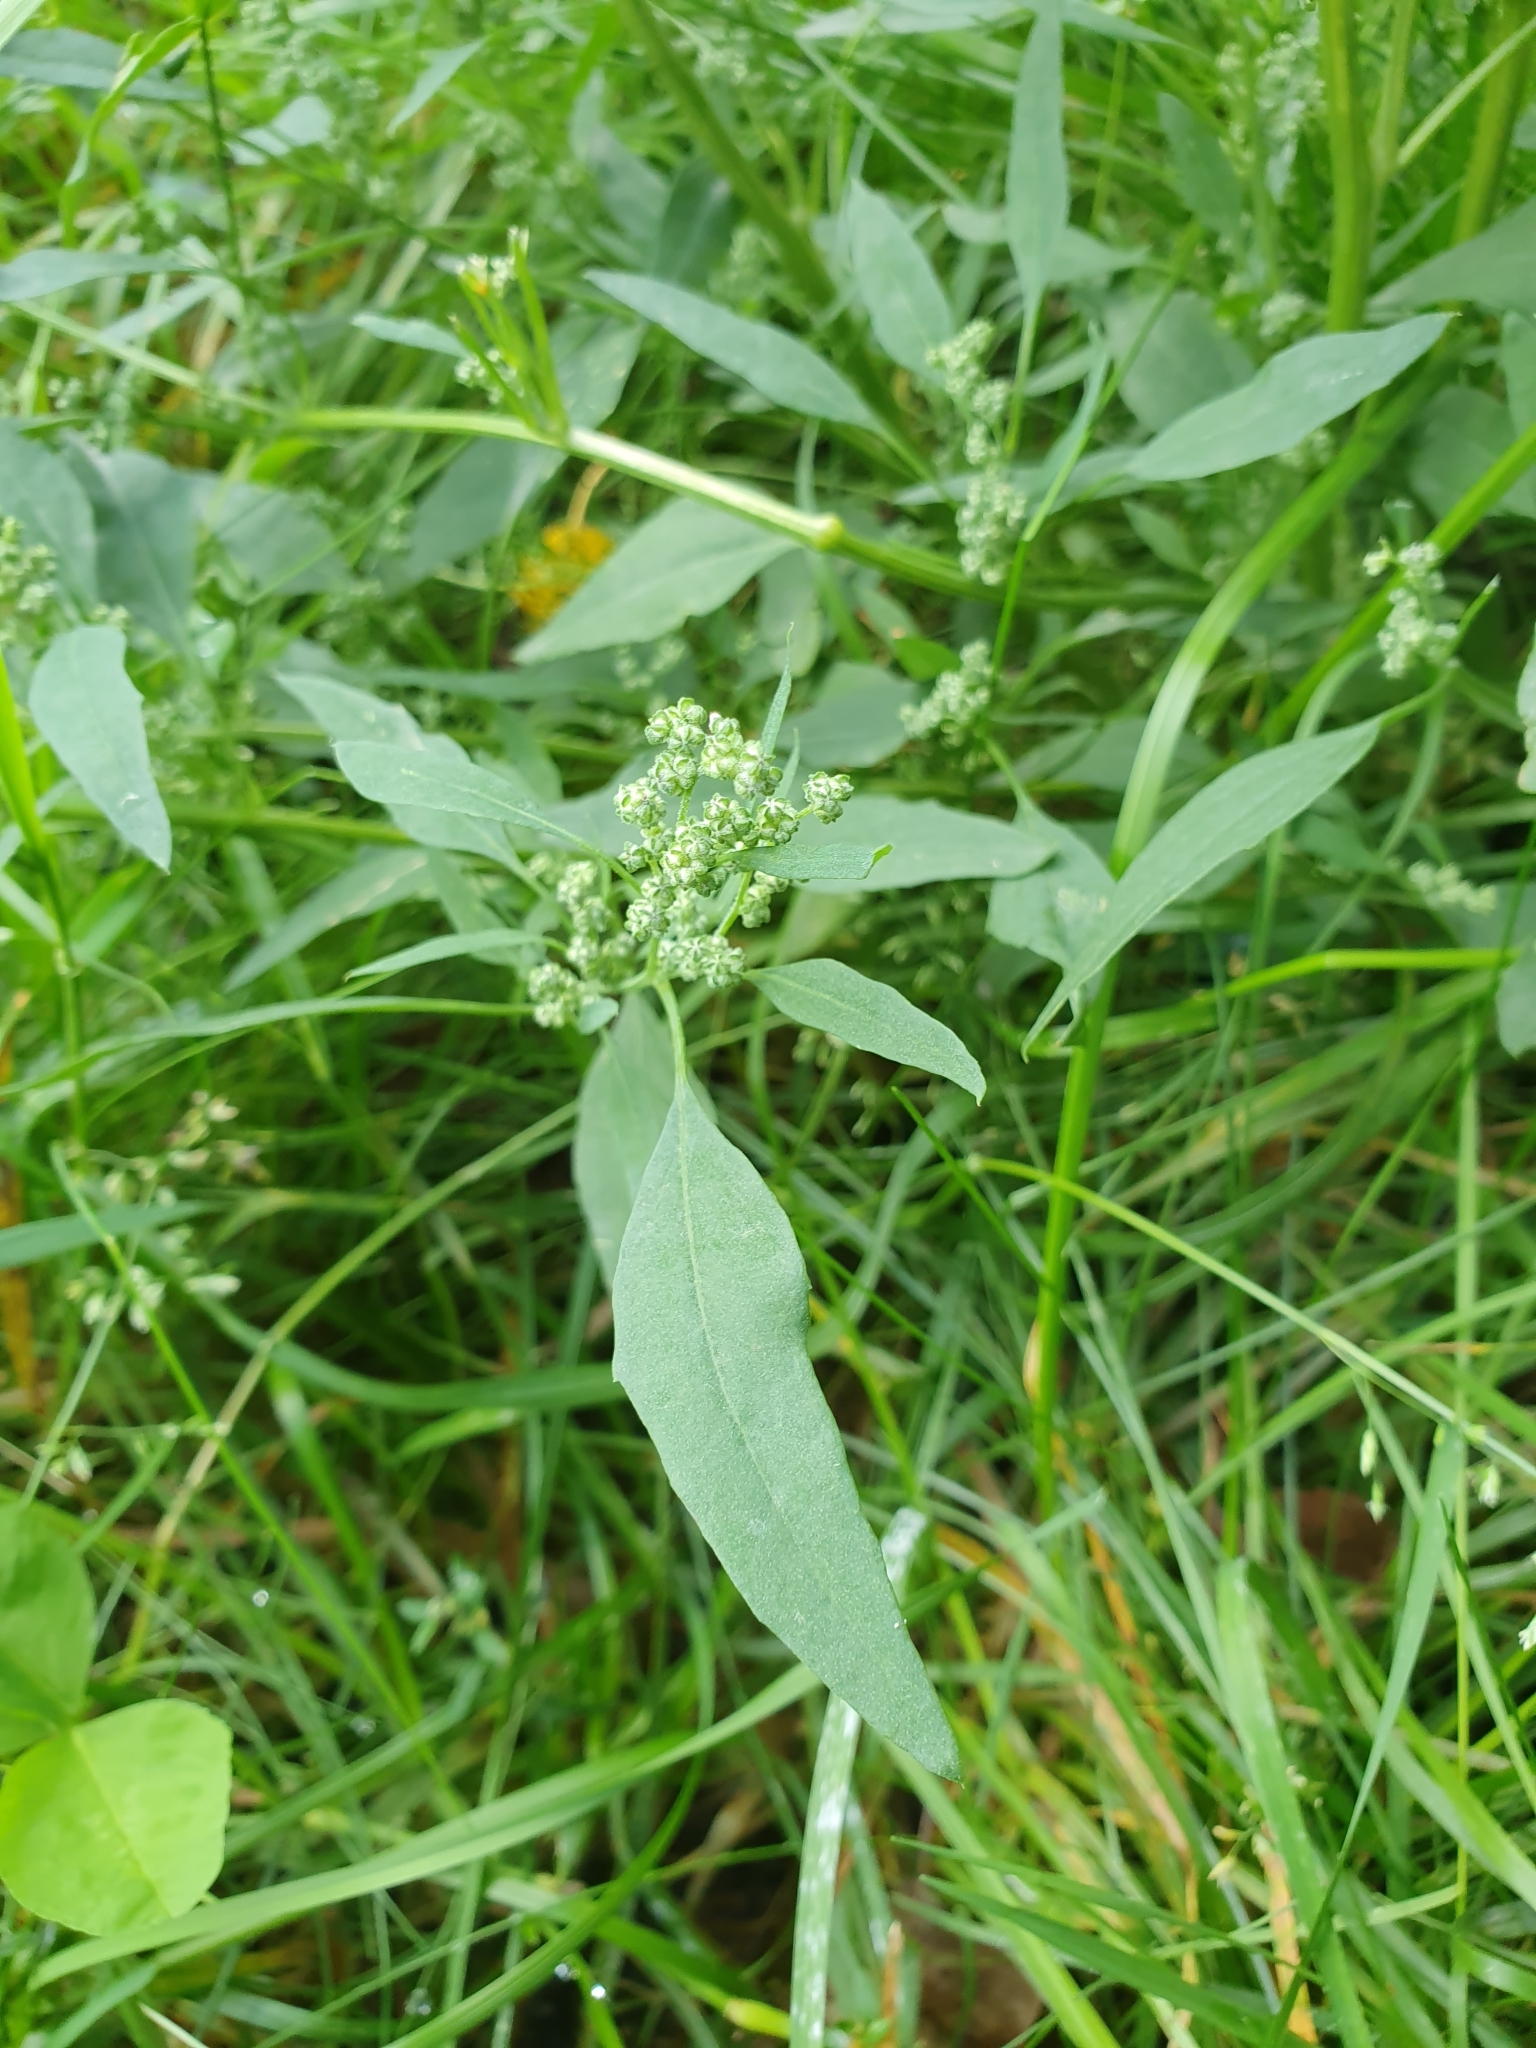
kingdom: Plantae
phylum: Tracheophyta
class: Magnoliopsida
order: Caryophyllales
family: Amaranthaceae
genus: Chenopodium
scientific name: Chenopodium album
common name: Fat-hen
